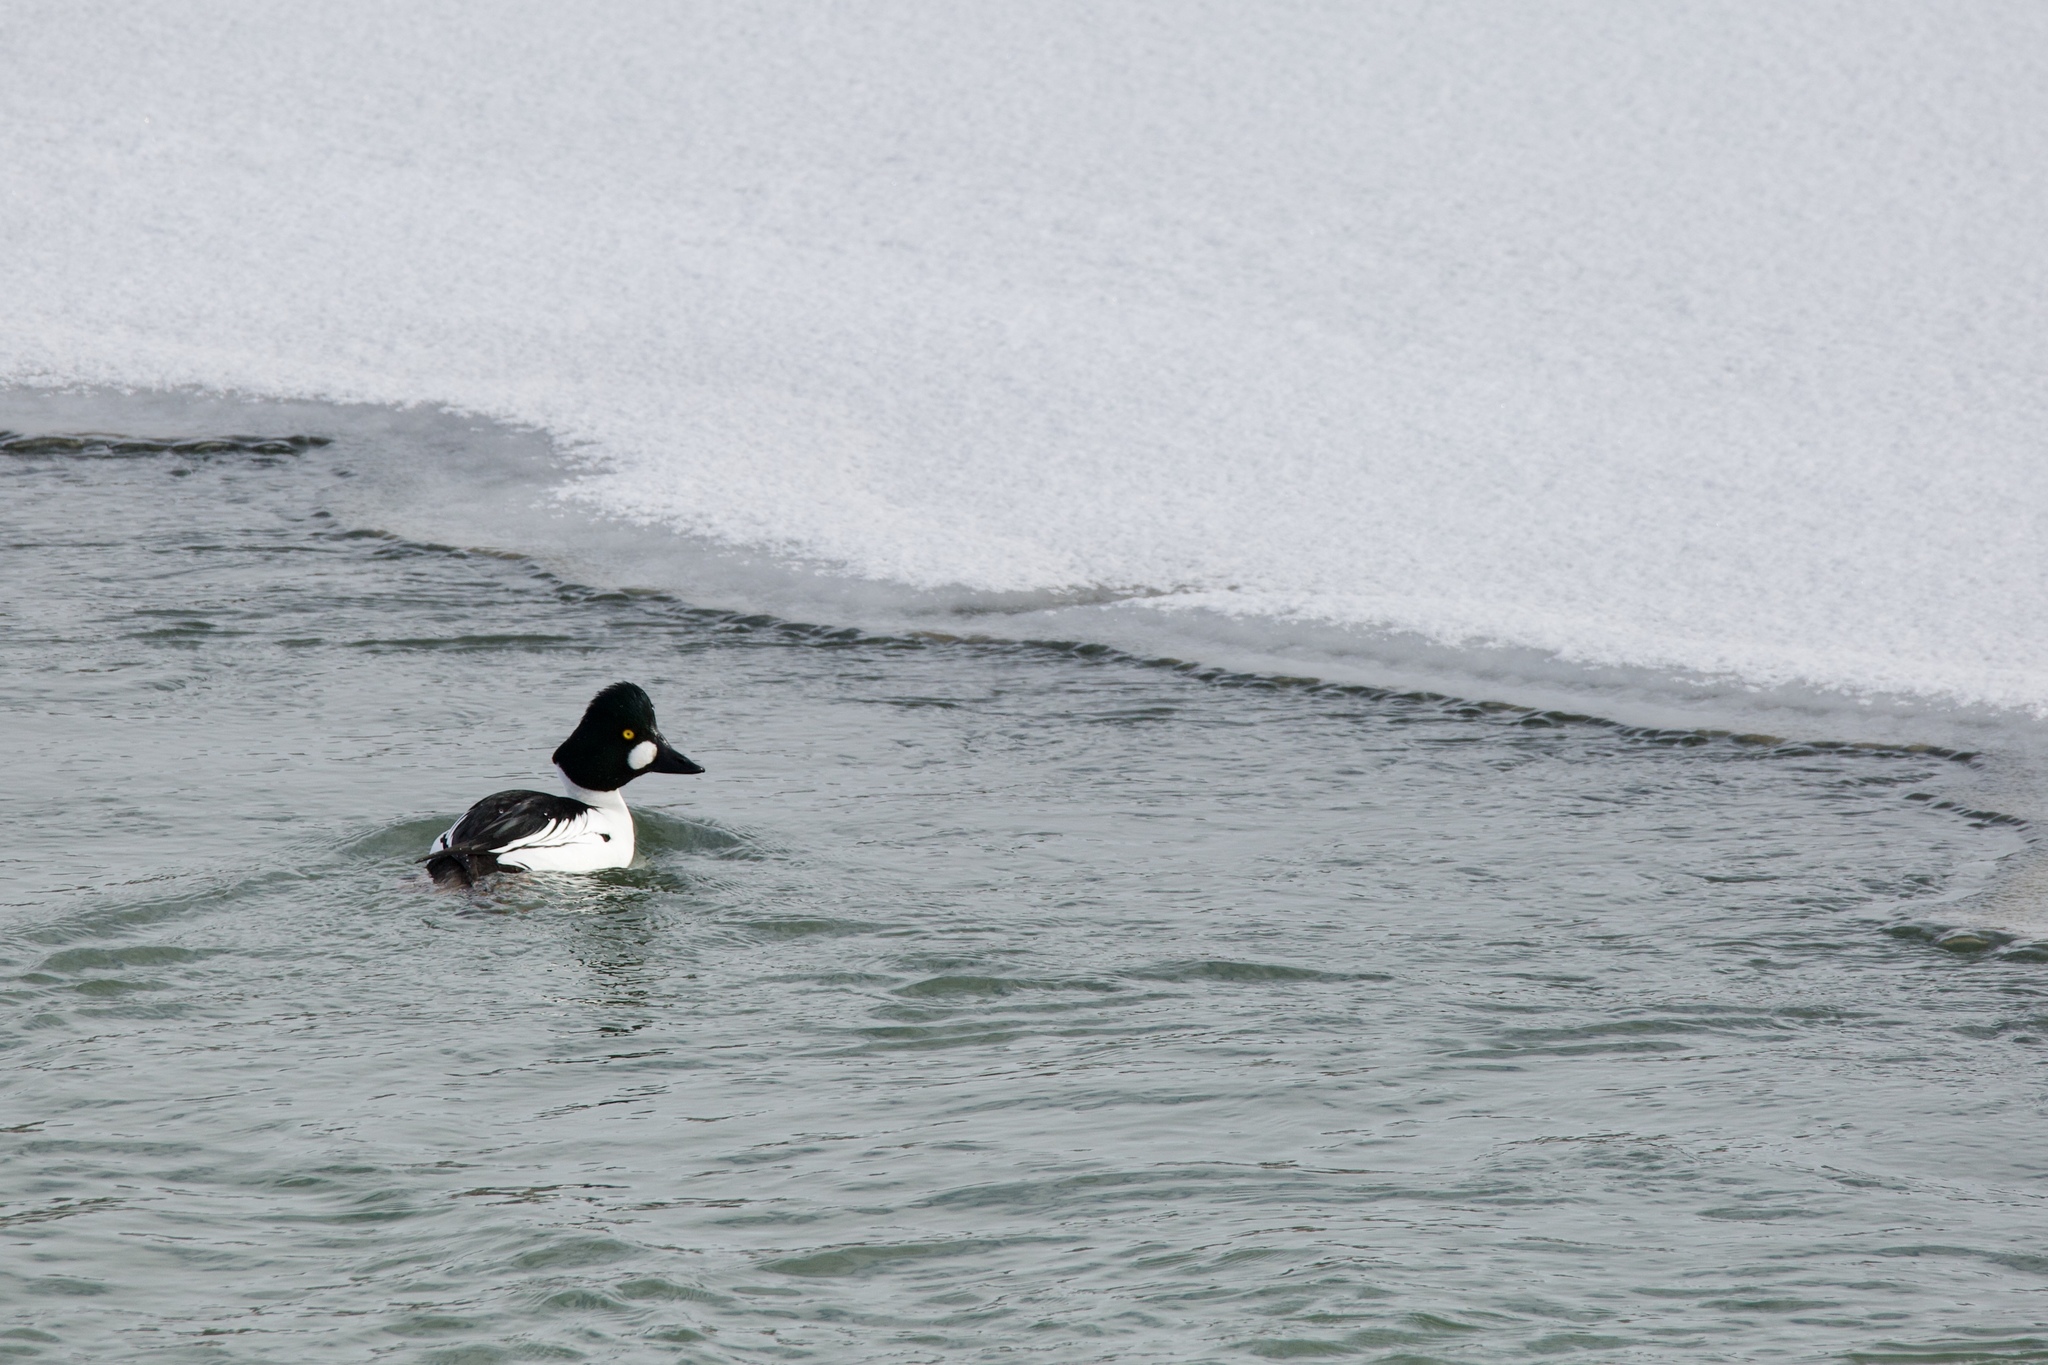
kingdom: Animalia
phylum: Chordata
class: Aves
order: Anseriformes
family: Anatidae
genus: Bucephala
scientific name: Bucephala clangula
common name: Common goldeneye
